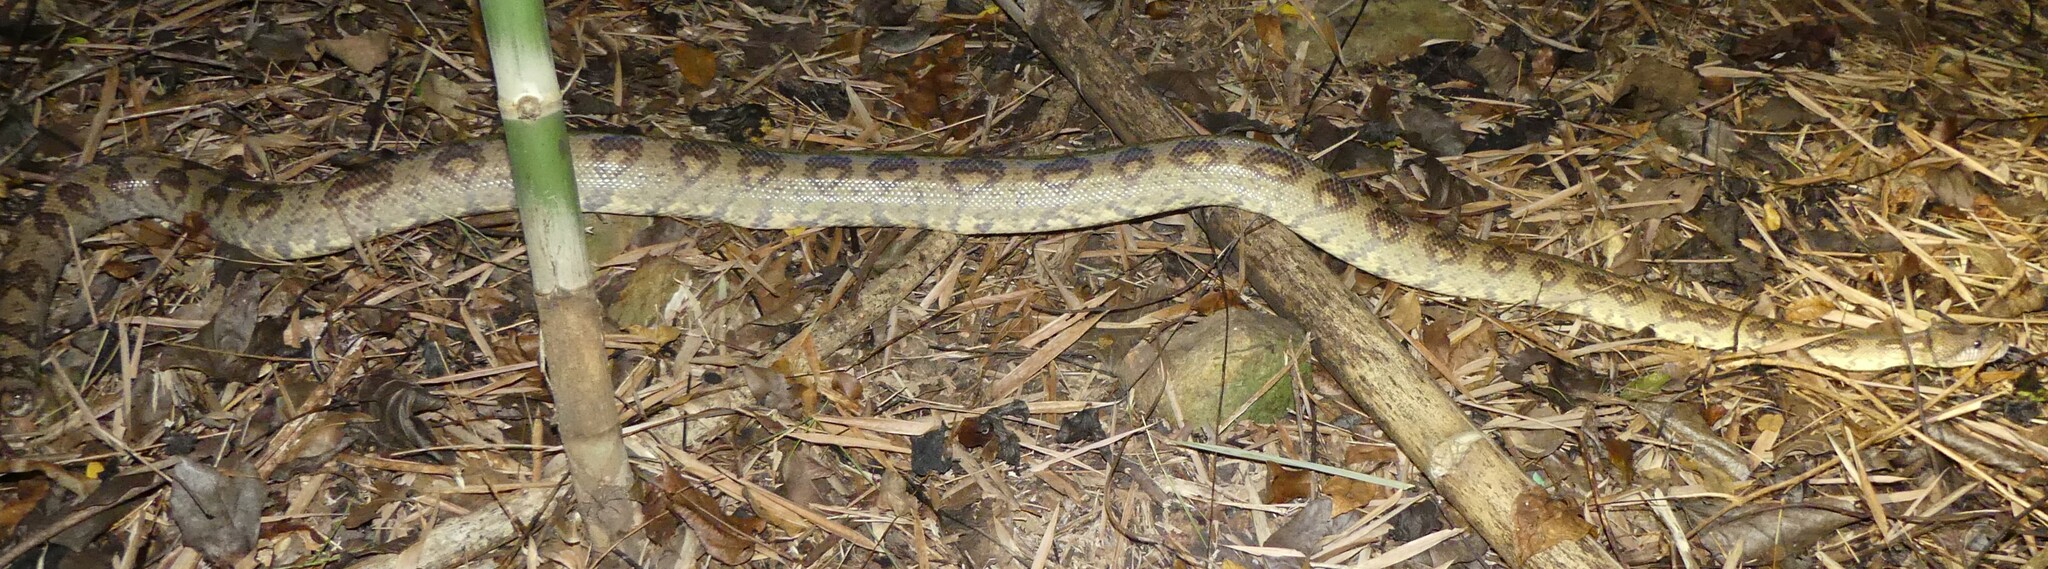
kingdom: Animalia
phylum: Chordata
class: Squamata
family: Boidae
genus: Sanzinia
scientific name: Sanzinia volontany
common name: Nosy komba tree boa
